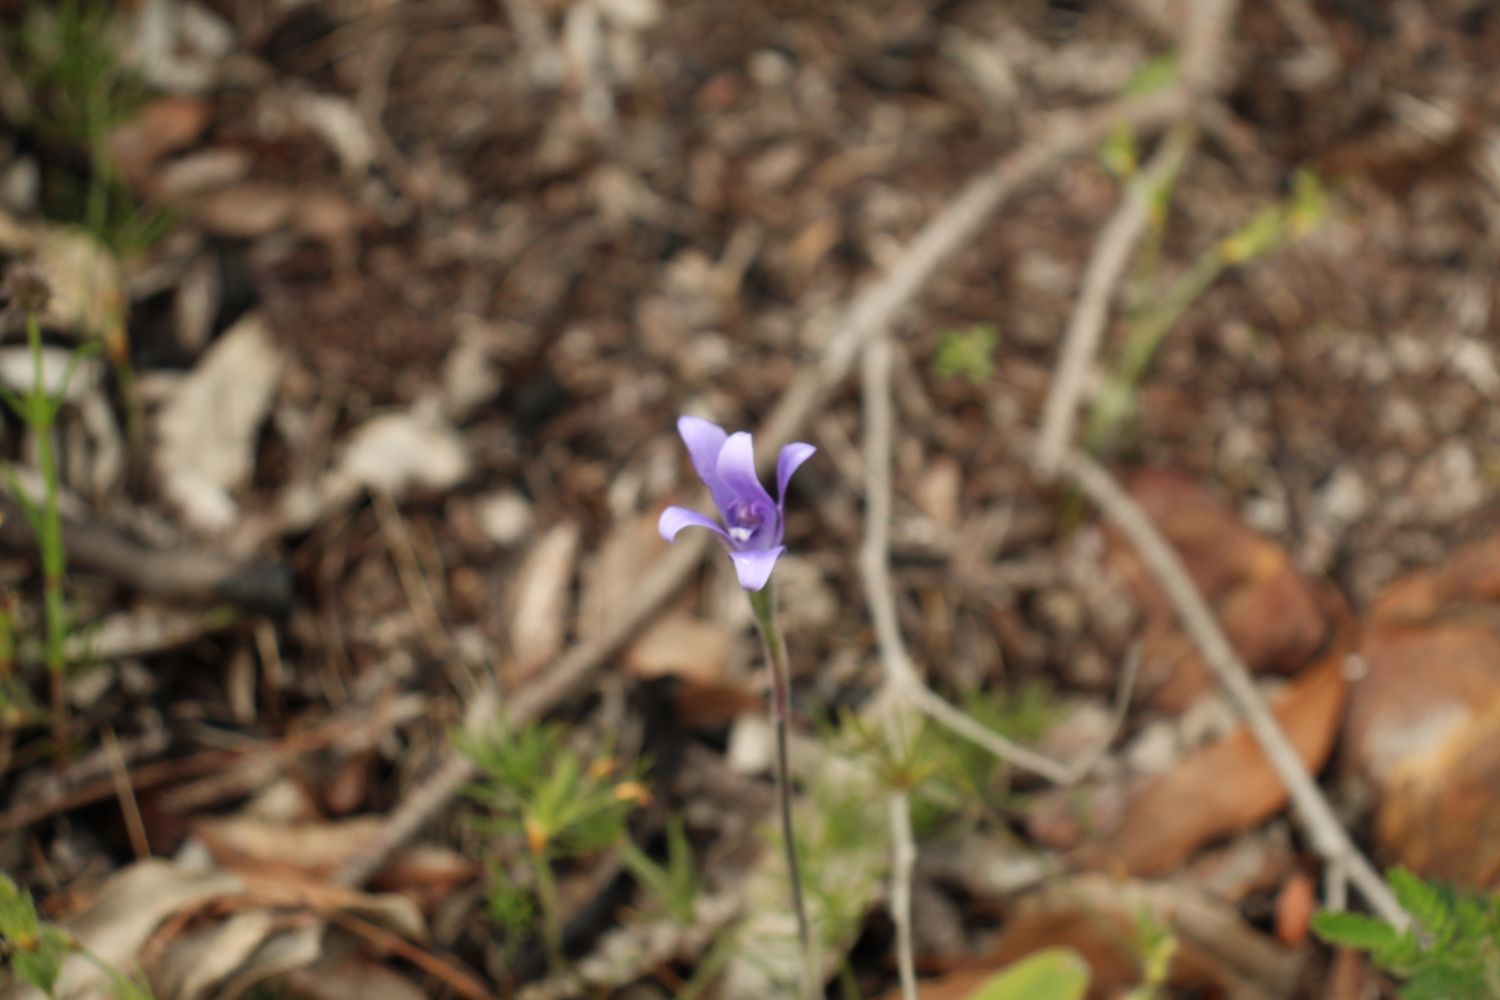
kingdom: Plantae
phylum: Tracheophyta
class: Liliopsida
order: Asparagales
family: Orchidaceae
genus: Caladenia
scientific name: Caladenia sericea
